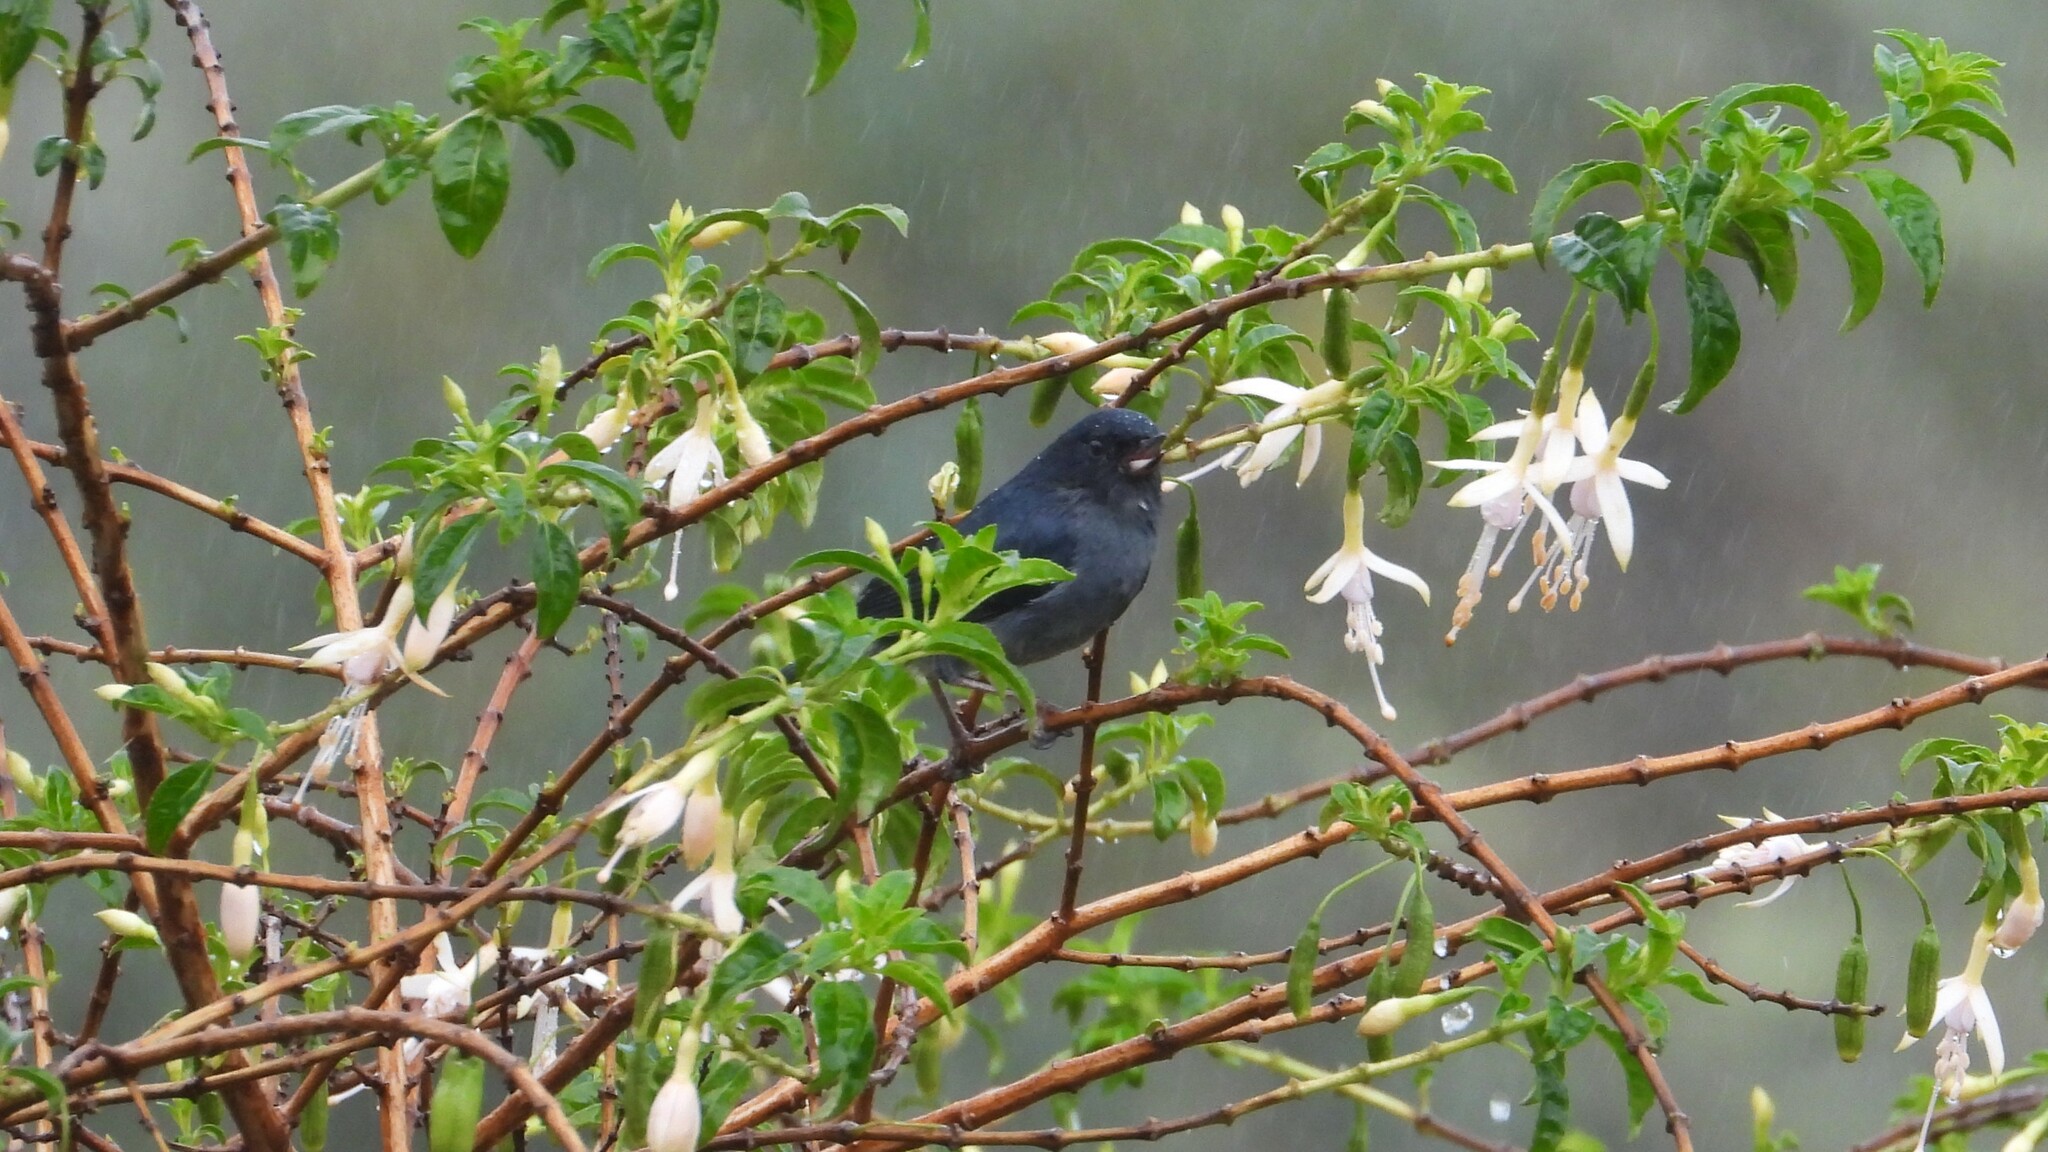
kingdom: Animalia
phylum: Chordata
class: Aves
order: Passeriformes
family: Thraupidae
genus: Diglossa
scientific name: Diglossa plumbea
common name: Slaty flowerpiercer
